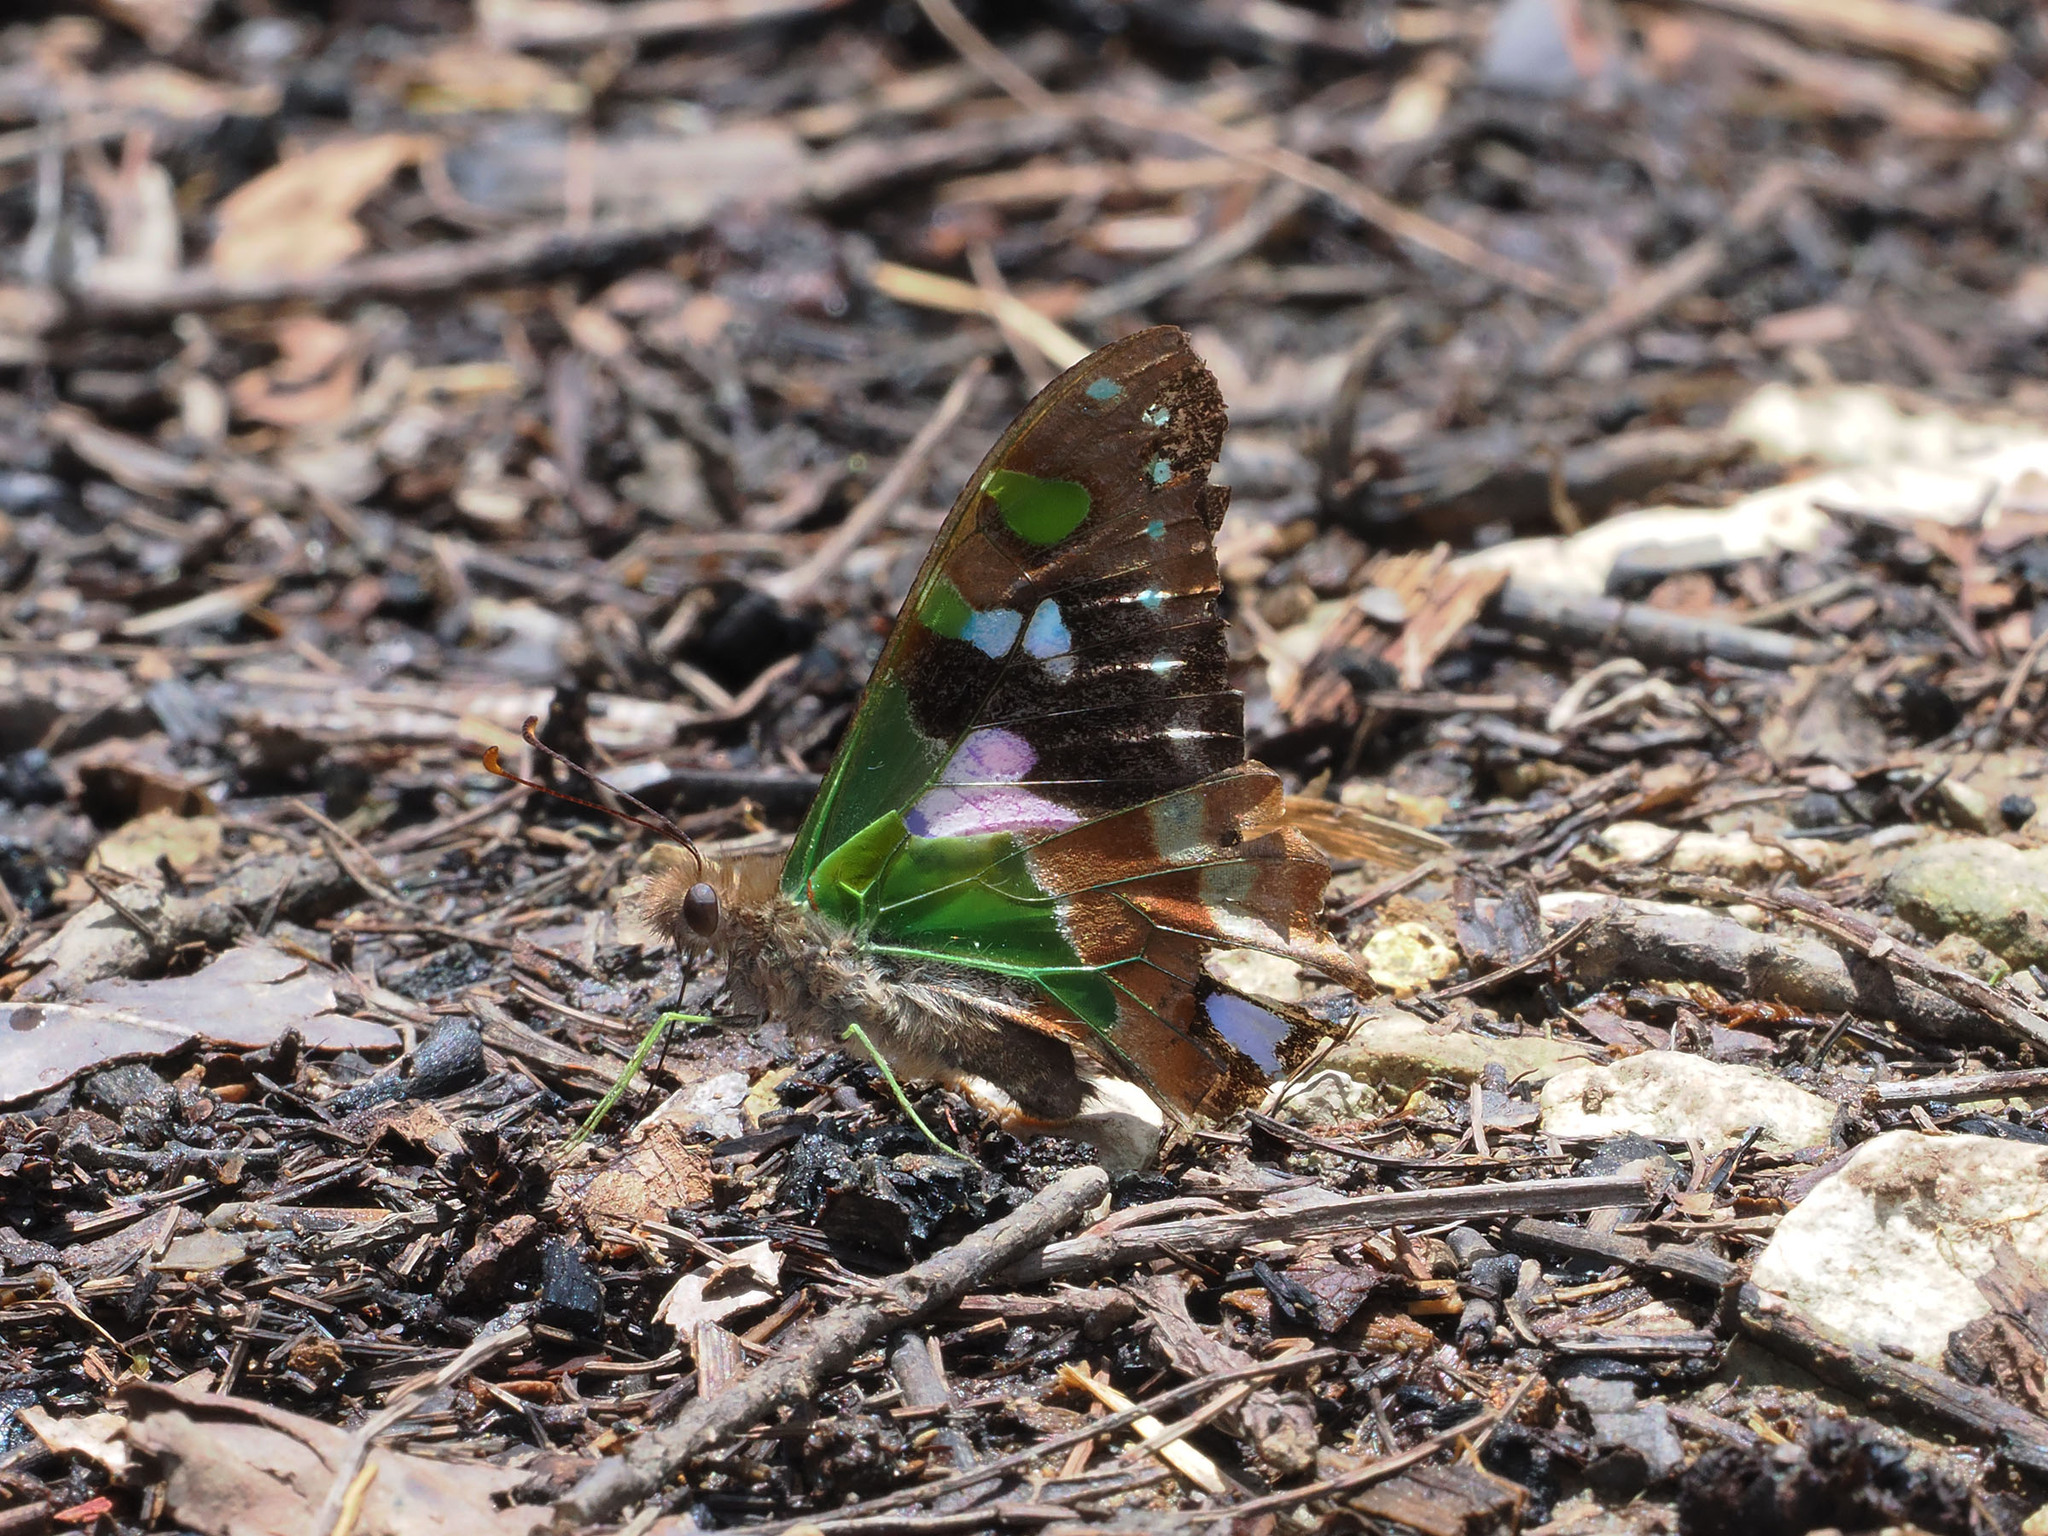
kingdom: Animalia
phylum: Arthropoda
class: Insecta
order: Lepidoptera
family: Papilionidae
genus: Graphium
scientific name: Graphium weiskei
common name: Purple spotted swallowtail
